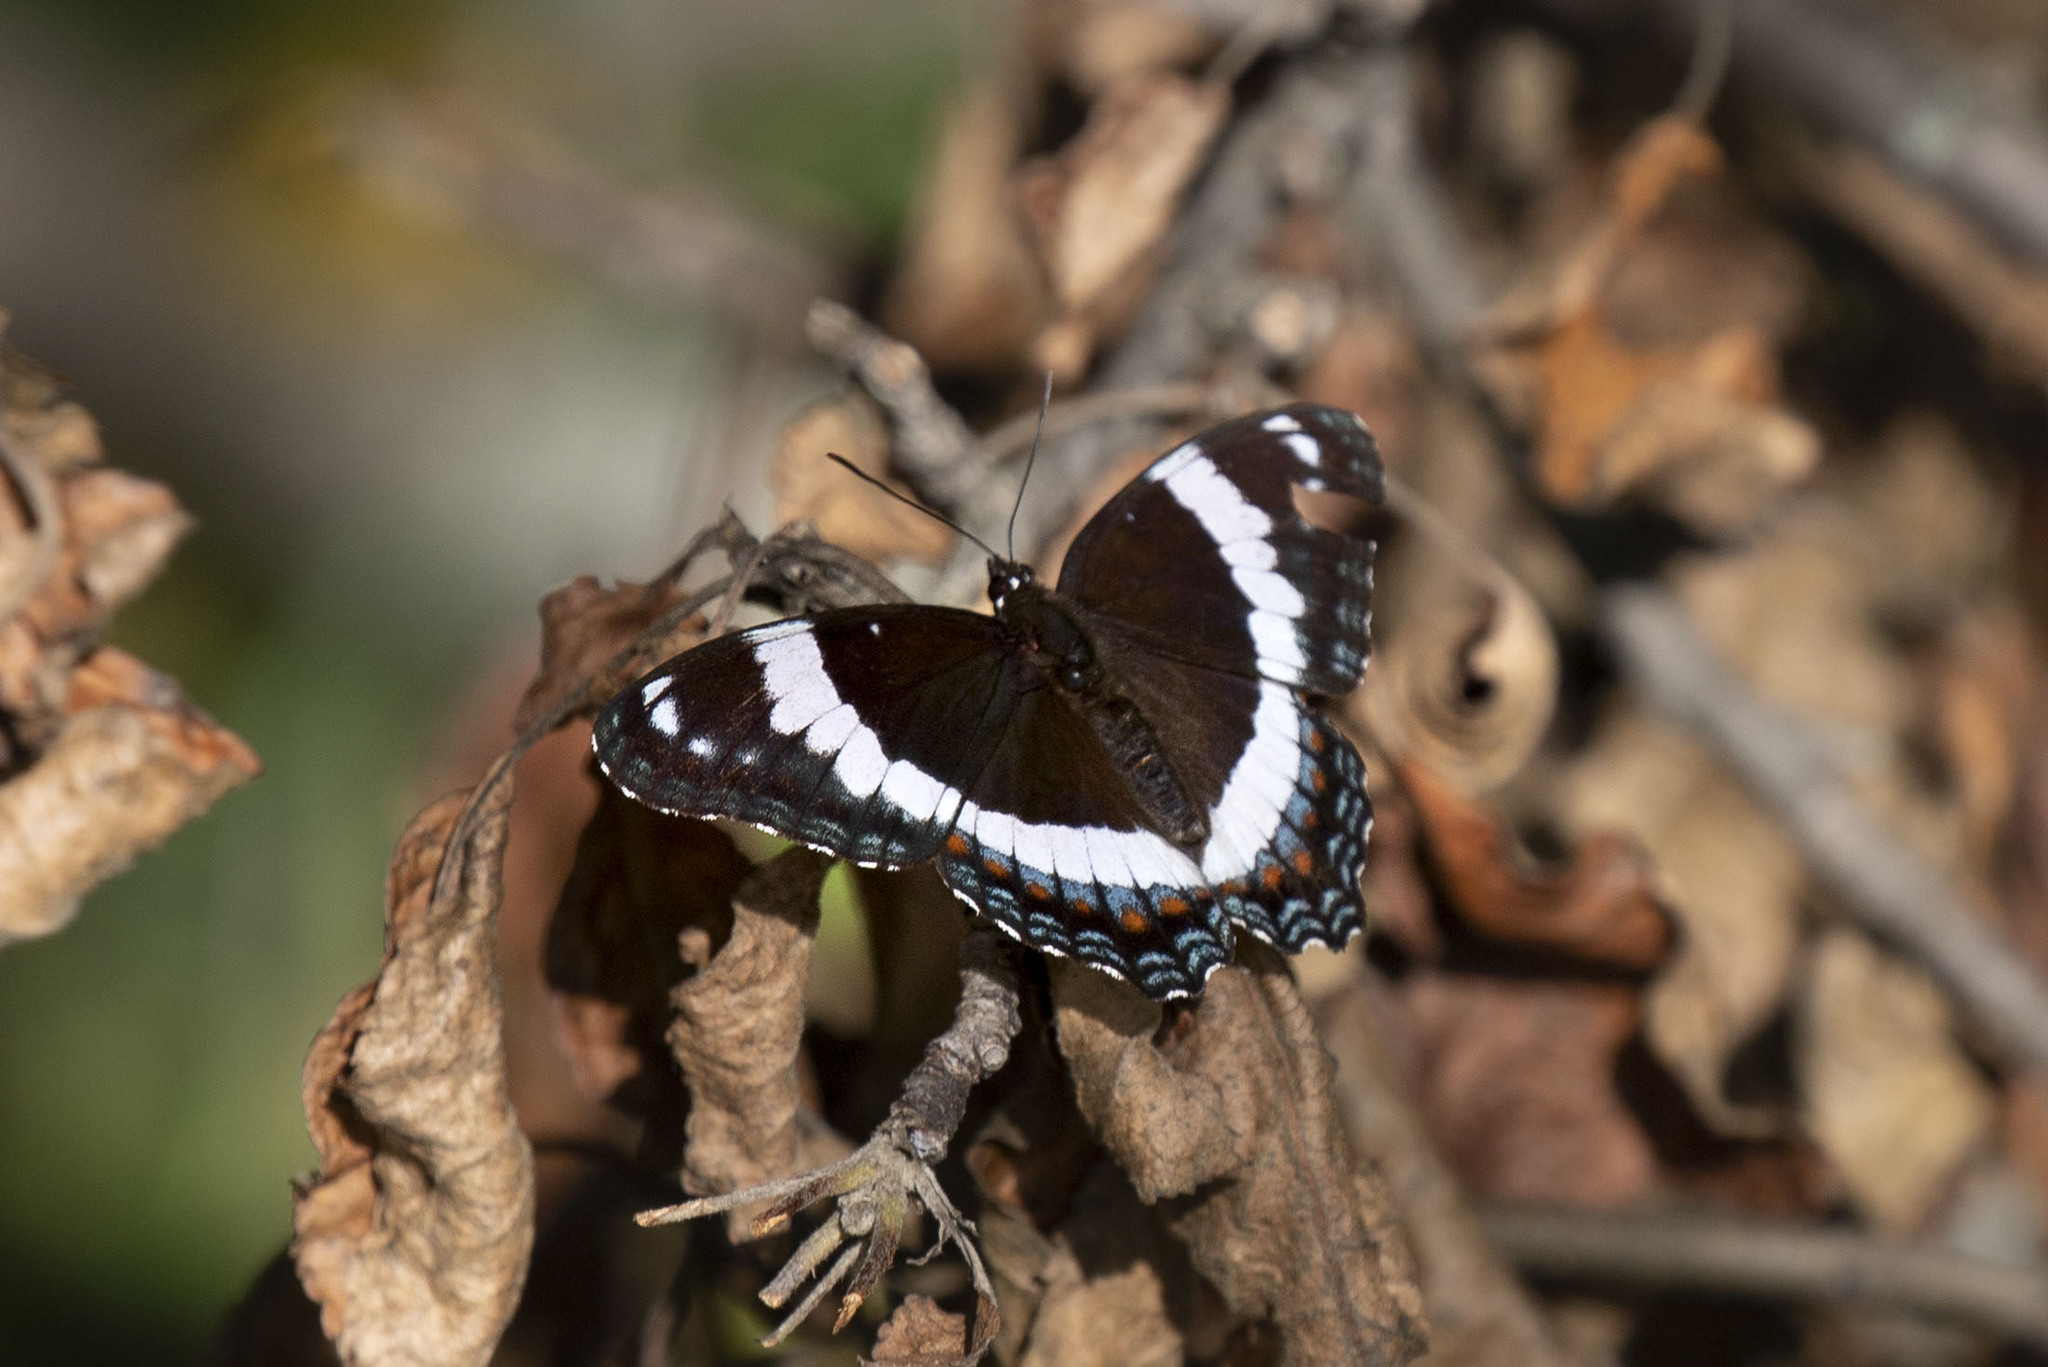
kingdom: Animalia
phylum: Arthropoda
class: Insecta
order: Lepidoptera
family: Nymphalidae
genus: Limenitis
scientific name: Limenitis arthemis
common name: Red-spotted admiral
